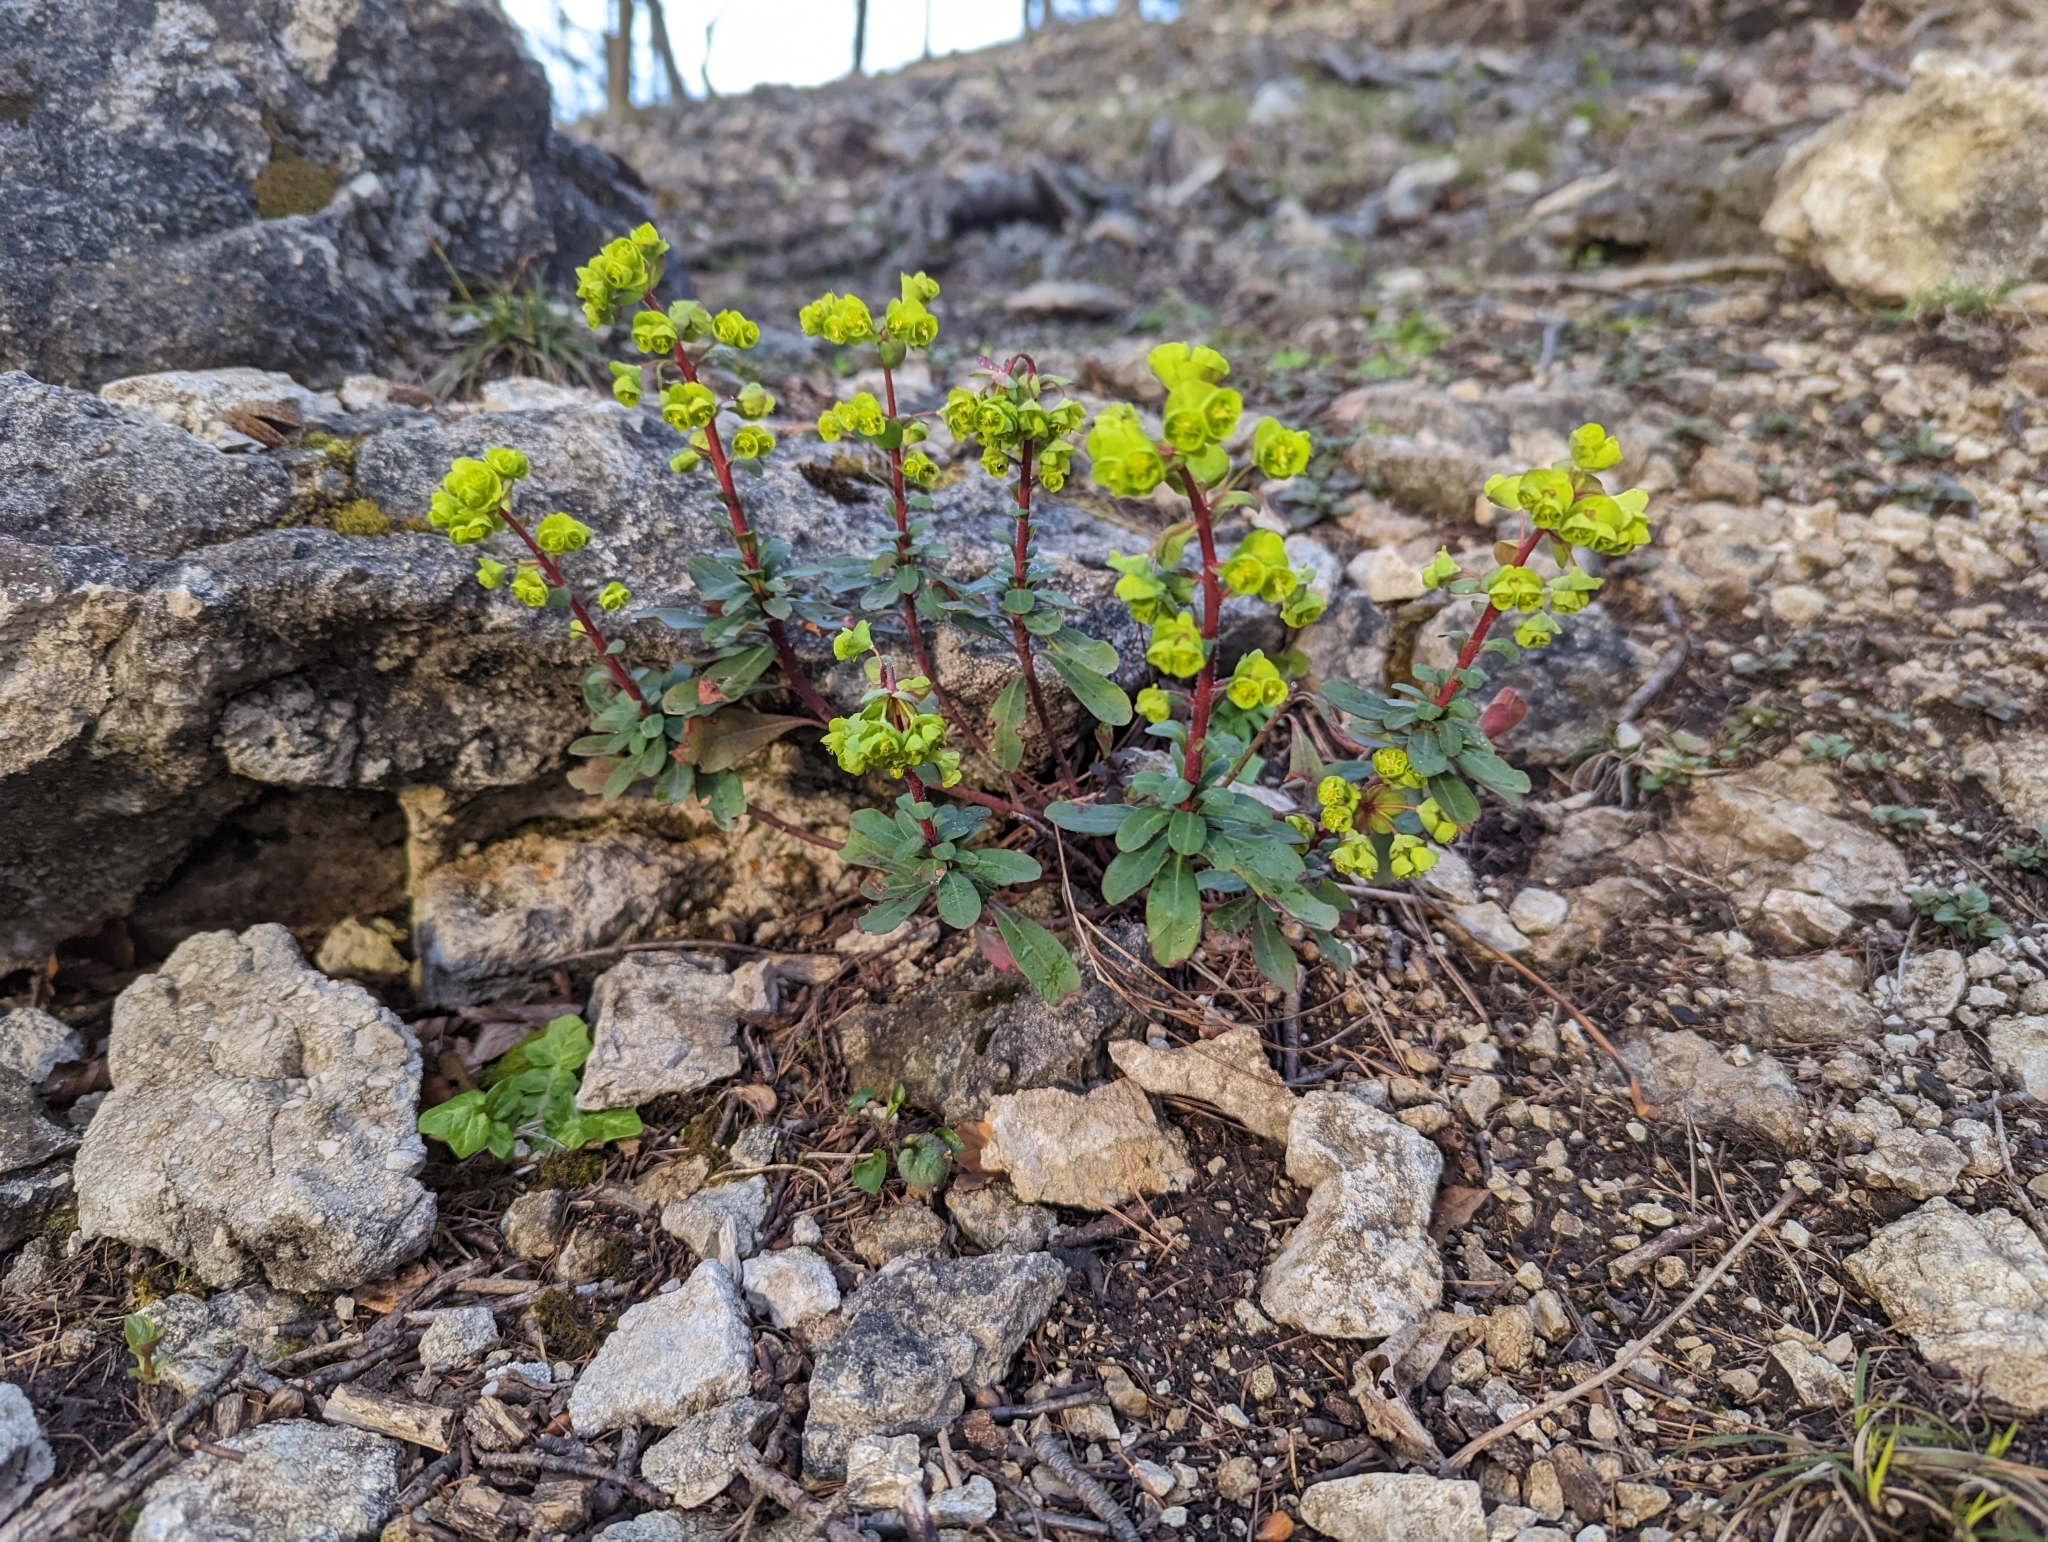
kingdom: Plantae
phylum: Tracheophyta
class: Magnoliopsida
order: Malpighiales
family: Euphorbiaceae
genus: Euphorbia
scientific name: Euphorbia amygdaloides
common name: Wood spurge
